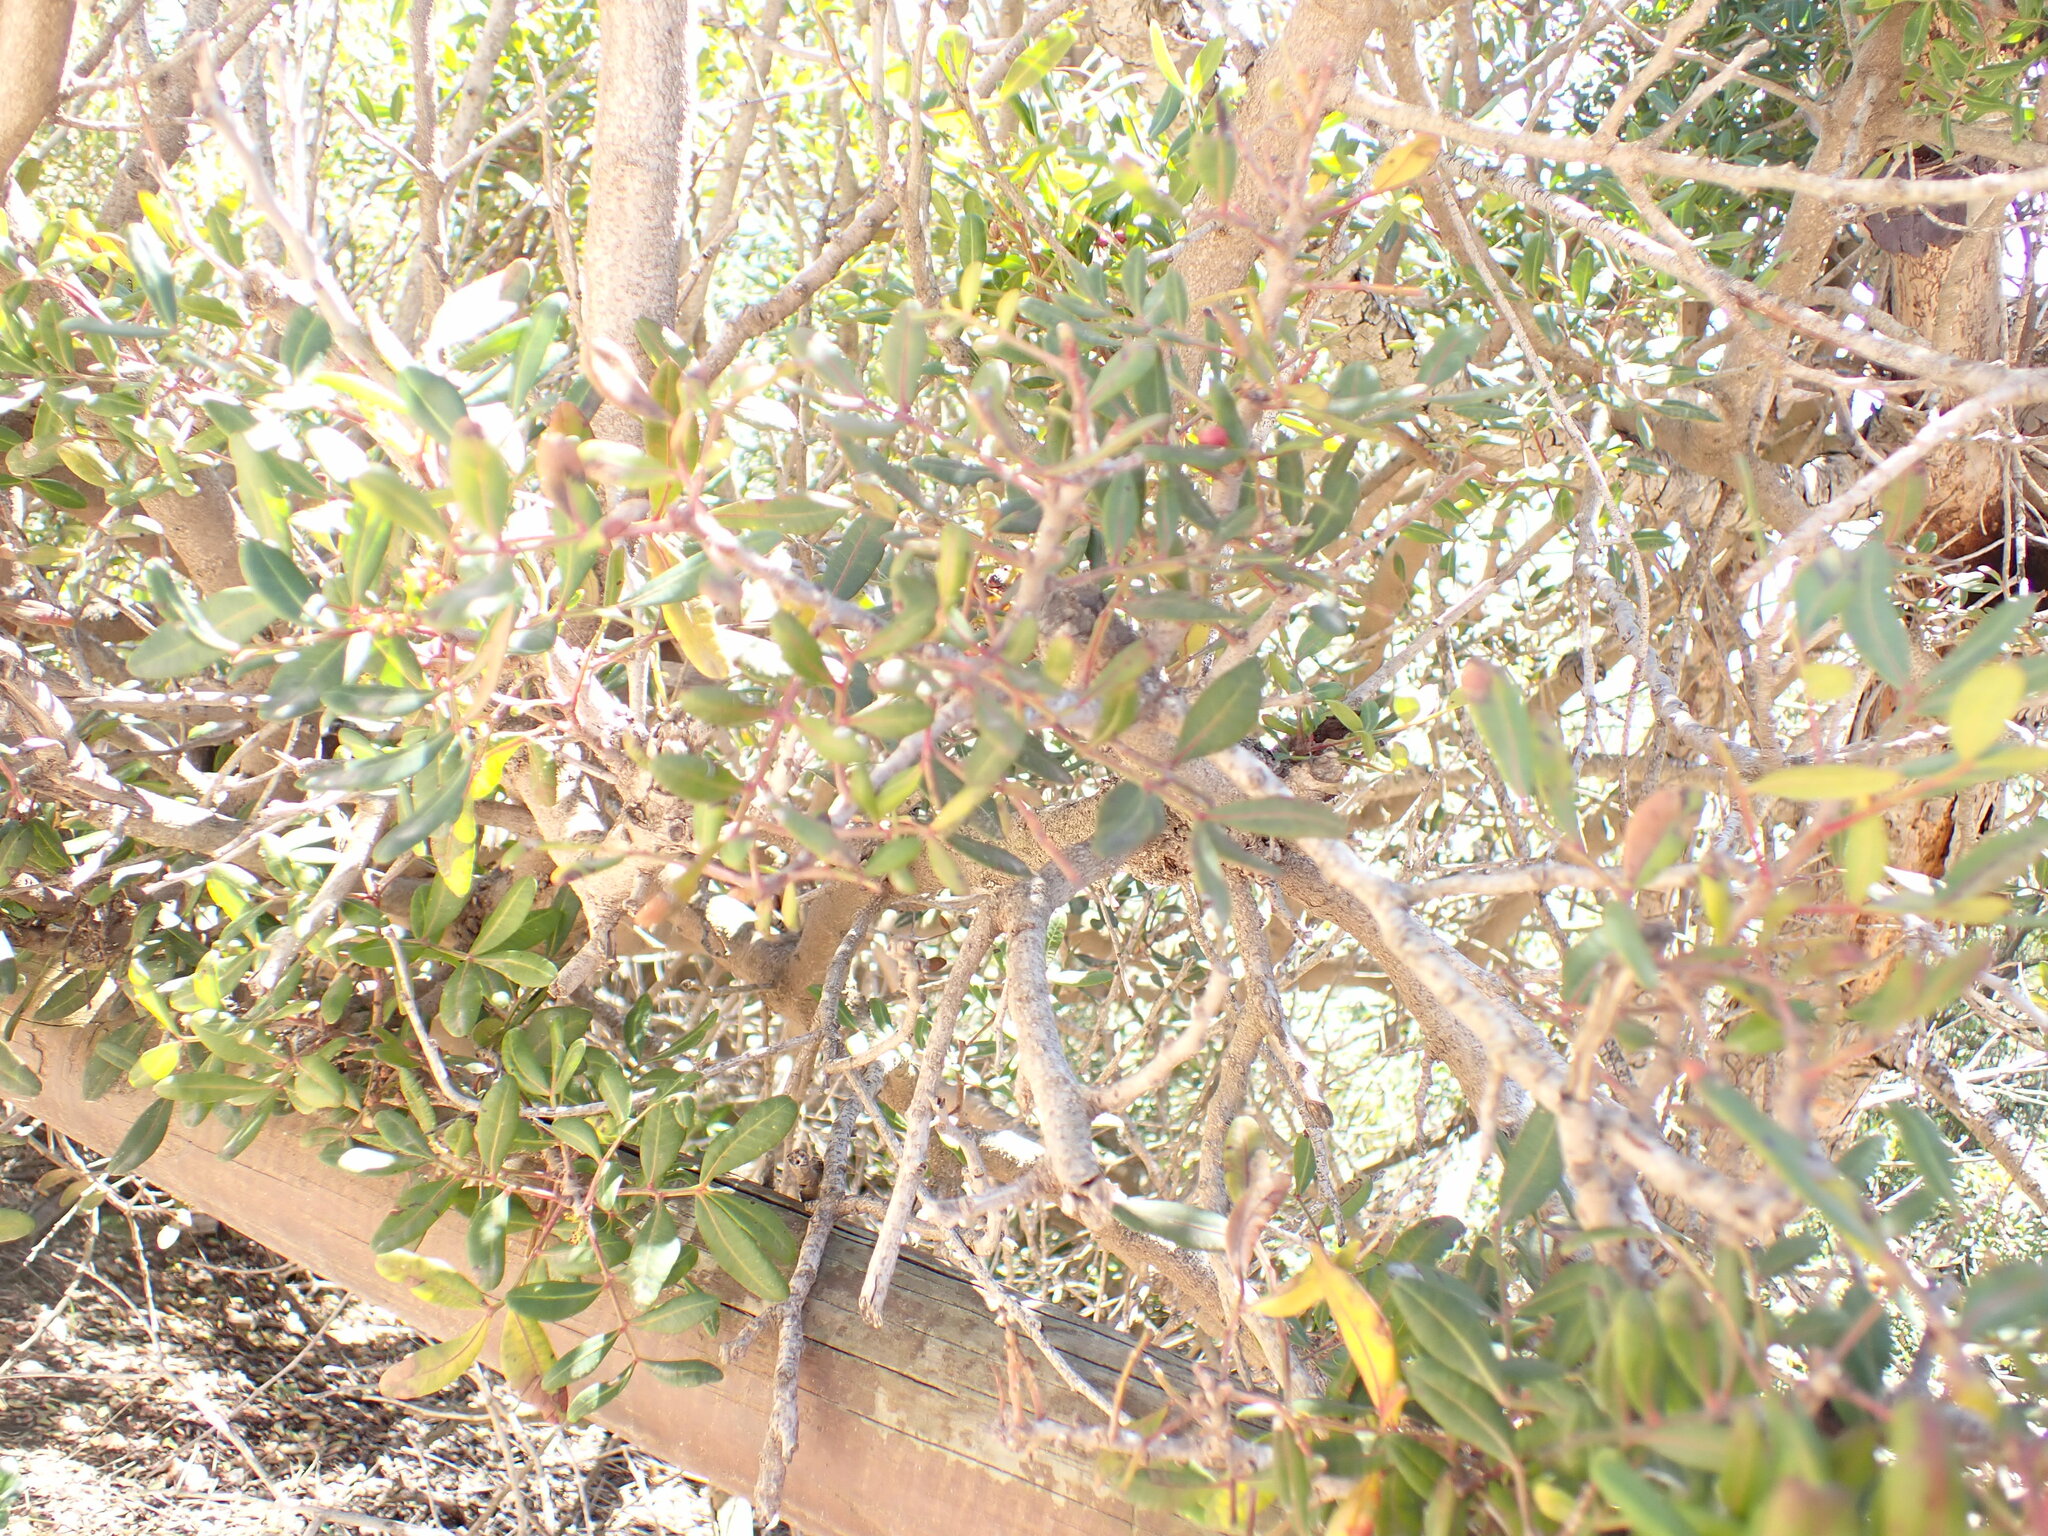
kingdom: Plantae
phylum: Tracheophyta
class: Magnoliopsida
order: Sapindales
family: Anacardiaceae
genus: Pistacia
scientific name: Pistacia lentiscus
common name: Lentisk
